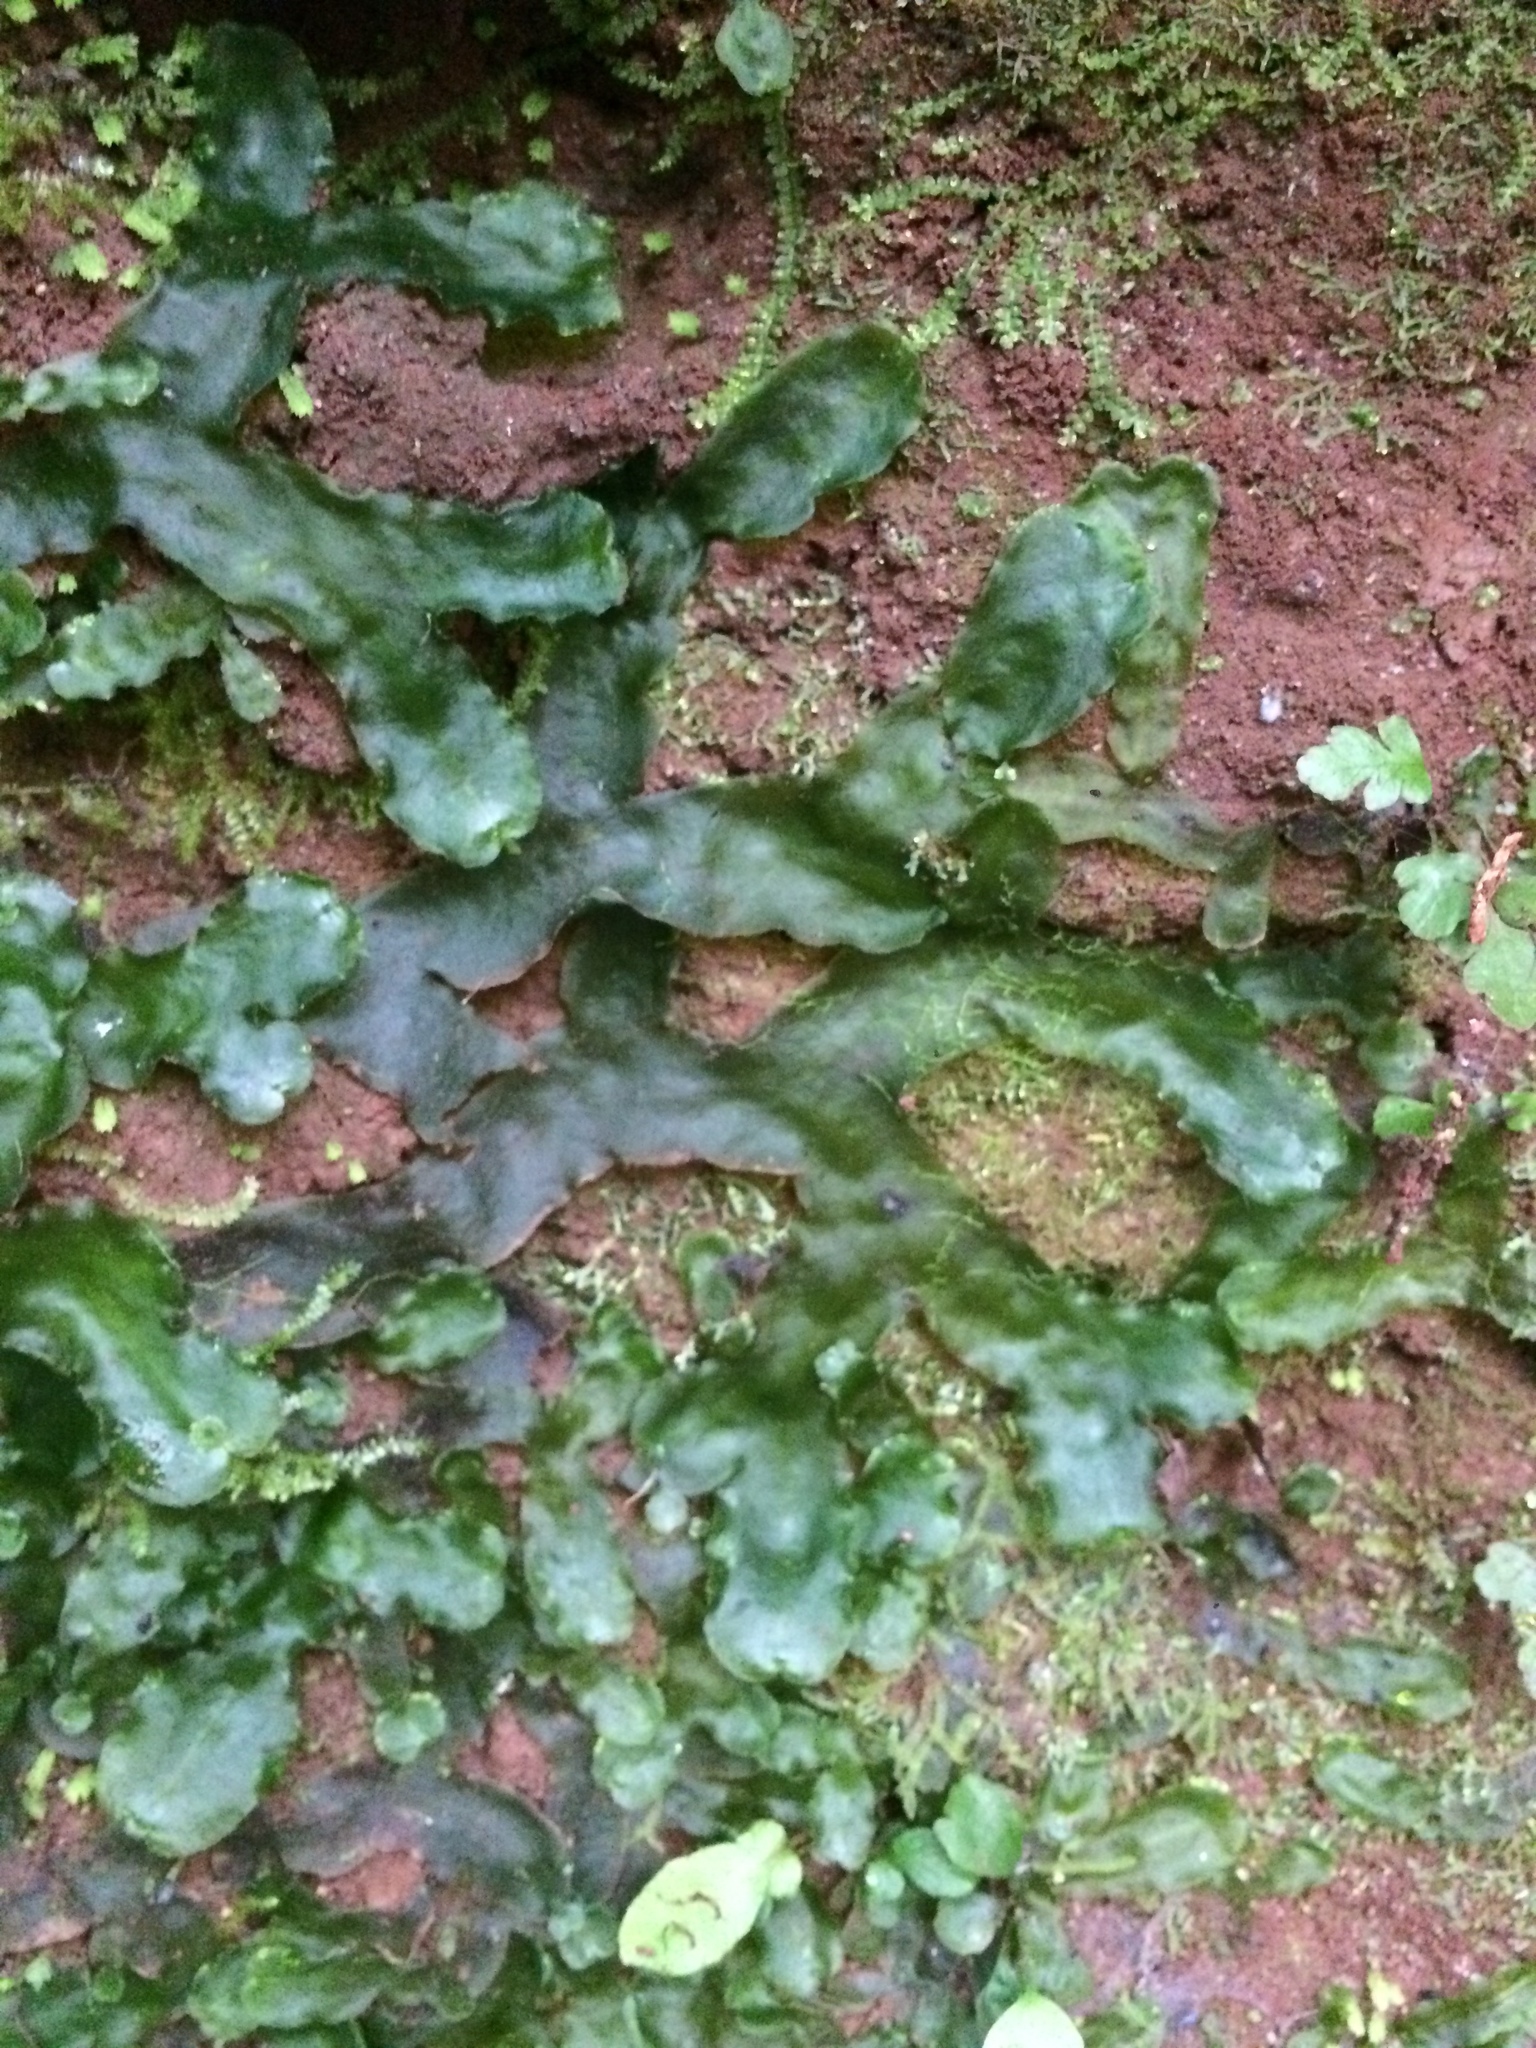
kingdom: Plantae
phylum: Marchantiophyta
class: Marchantiopsida
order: Marchantiales
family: Dumortieraceae
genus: Dumortiera
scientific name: Dumortiera hirsuta
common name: Dumortier's liverwort
